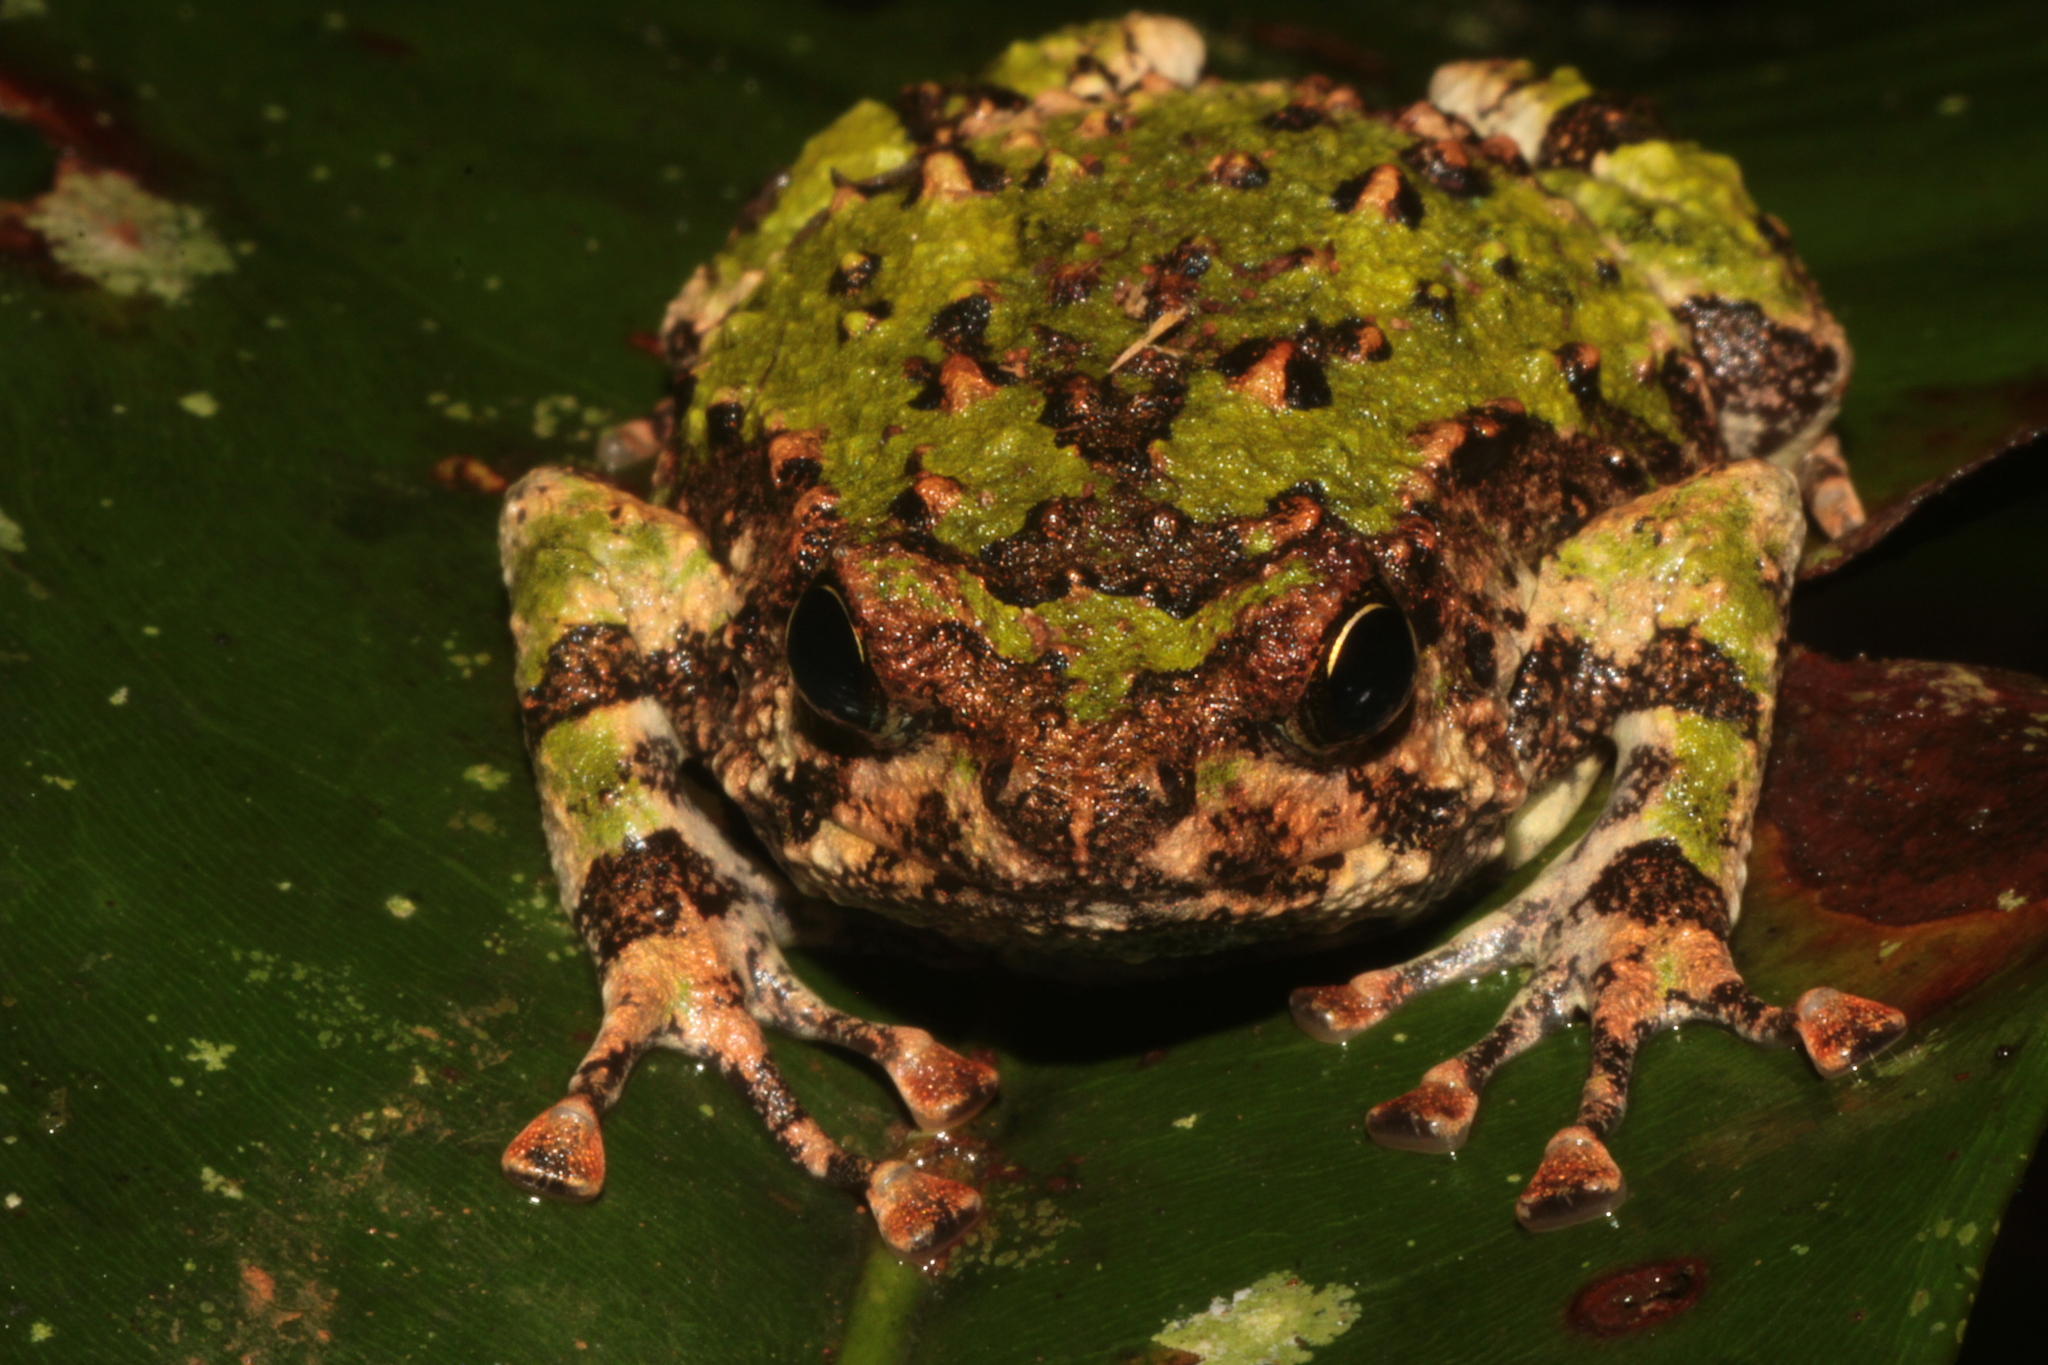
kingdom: Animalia
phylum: Chordata
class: Amphibia
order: Anura
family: Microhylidae
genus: Scaphiophryne
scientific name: Scaphiophryne marmorata
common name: Marbled rain frog
